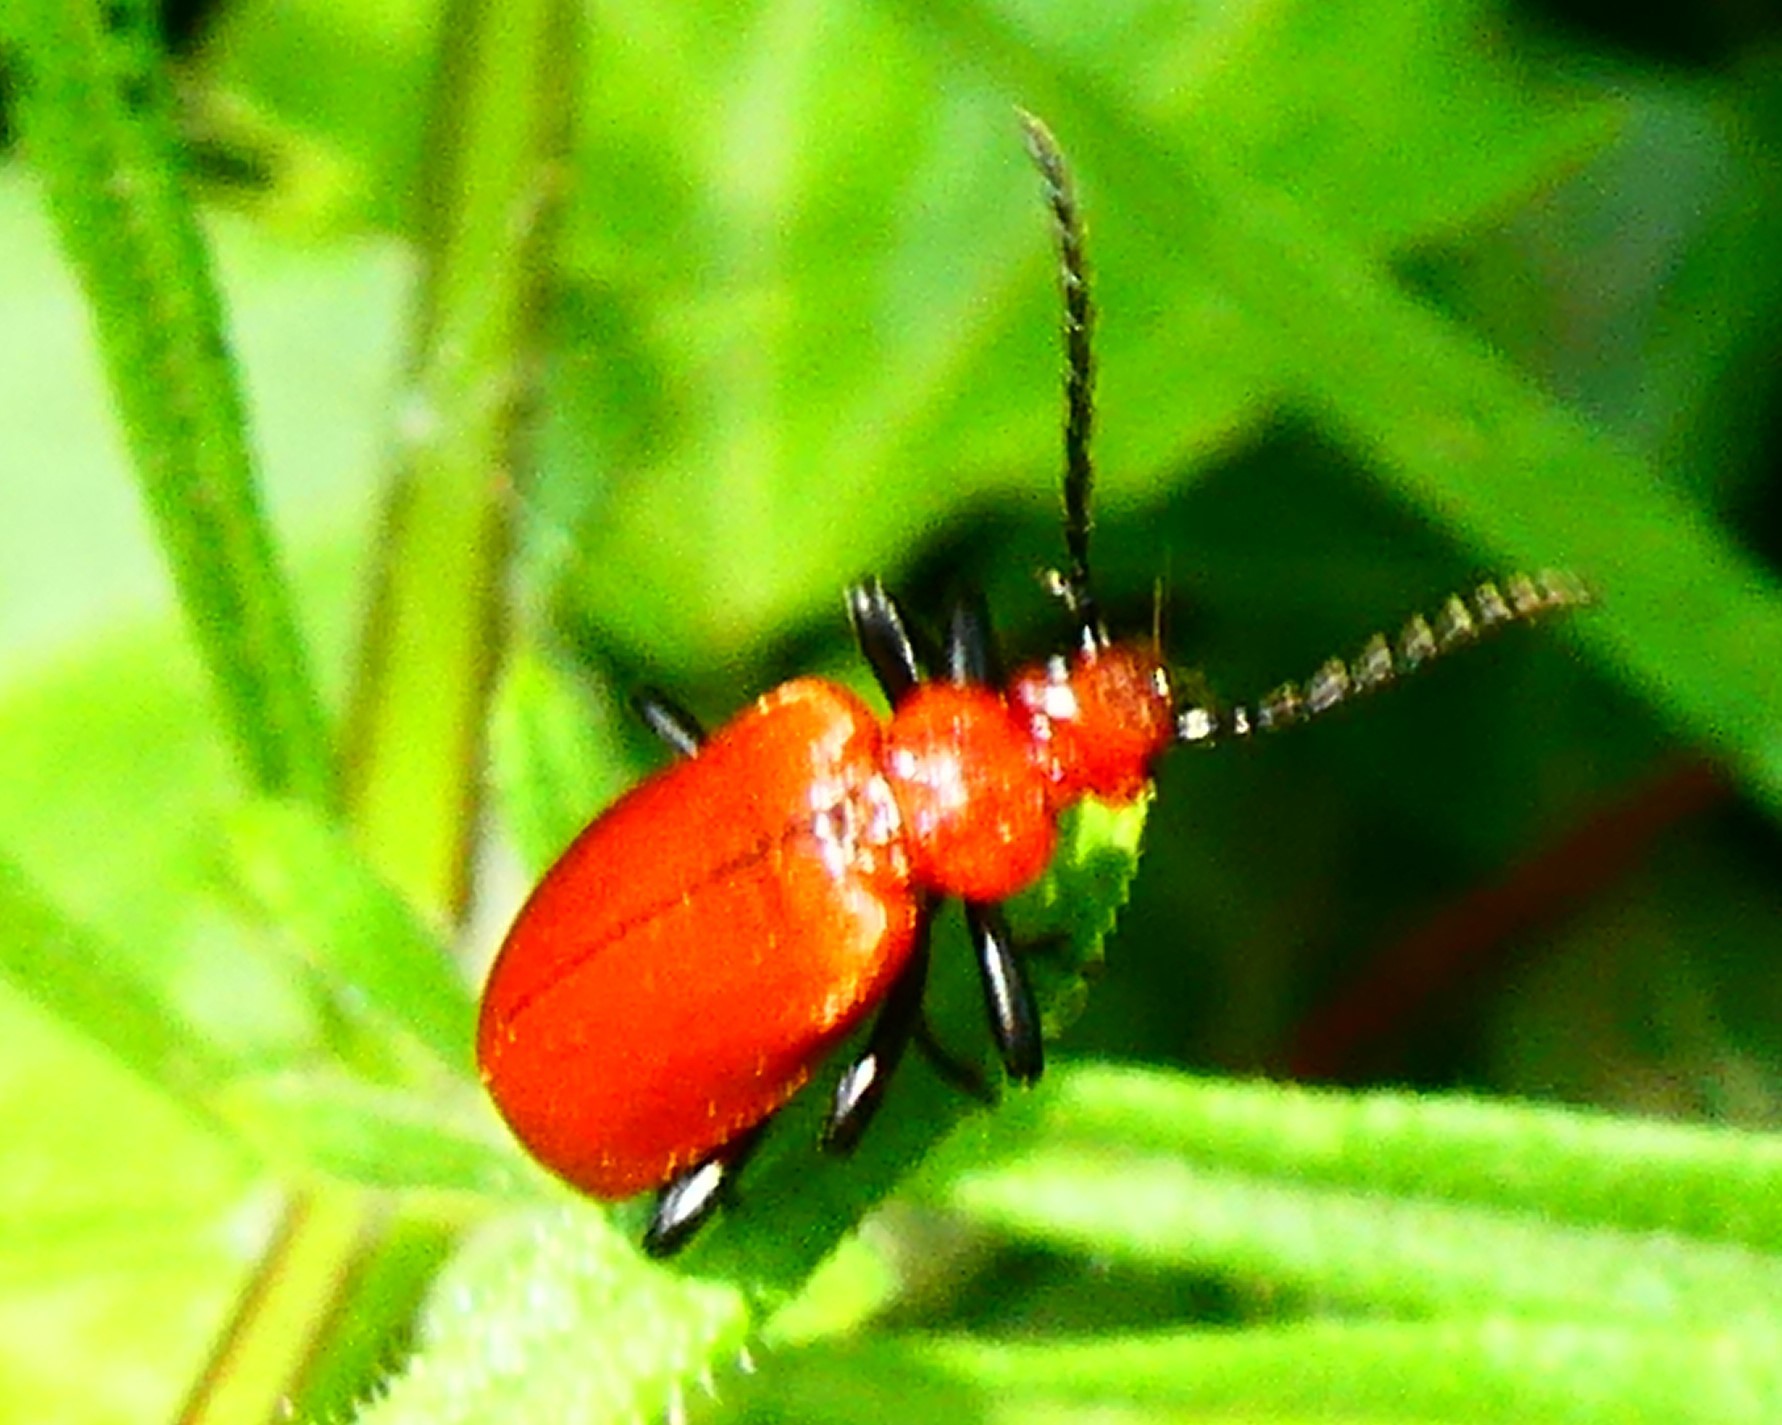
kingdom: Animalia
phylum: Arthropoda
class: Insecta
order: Coleoptera
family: Pyrochroidae
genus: Pyrochroa
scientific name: Pyrochroa serraticornis
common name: Red-headed cardinal beetle
